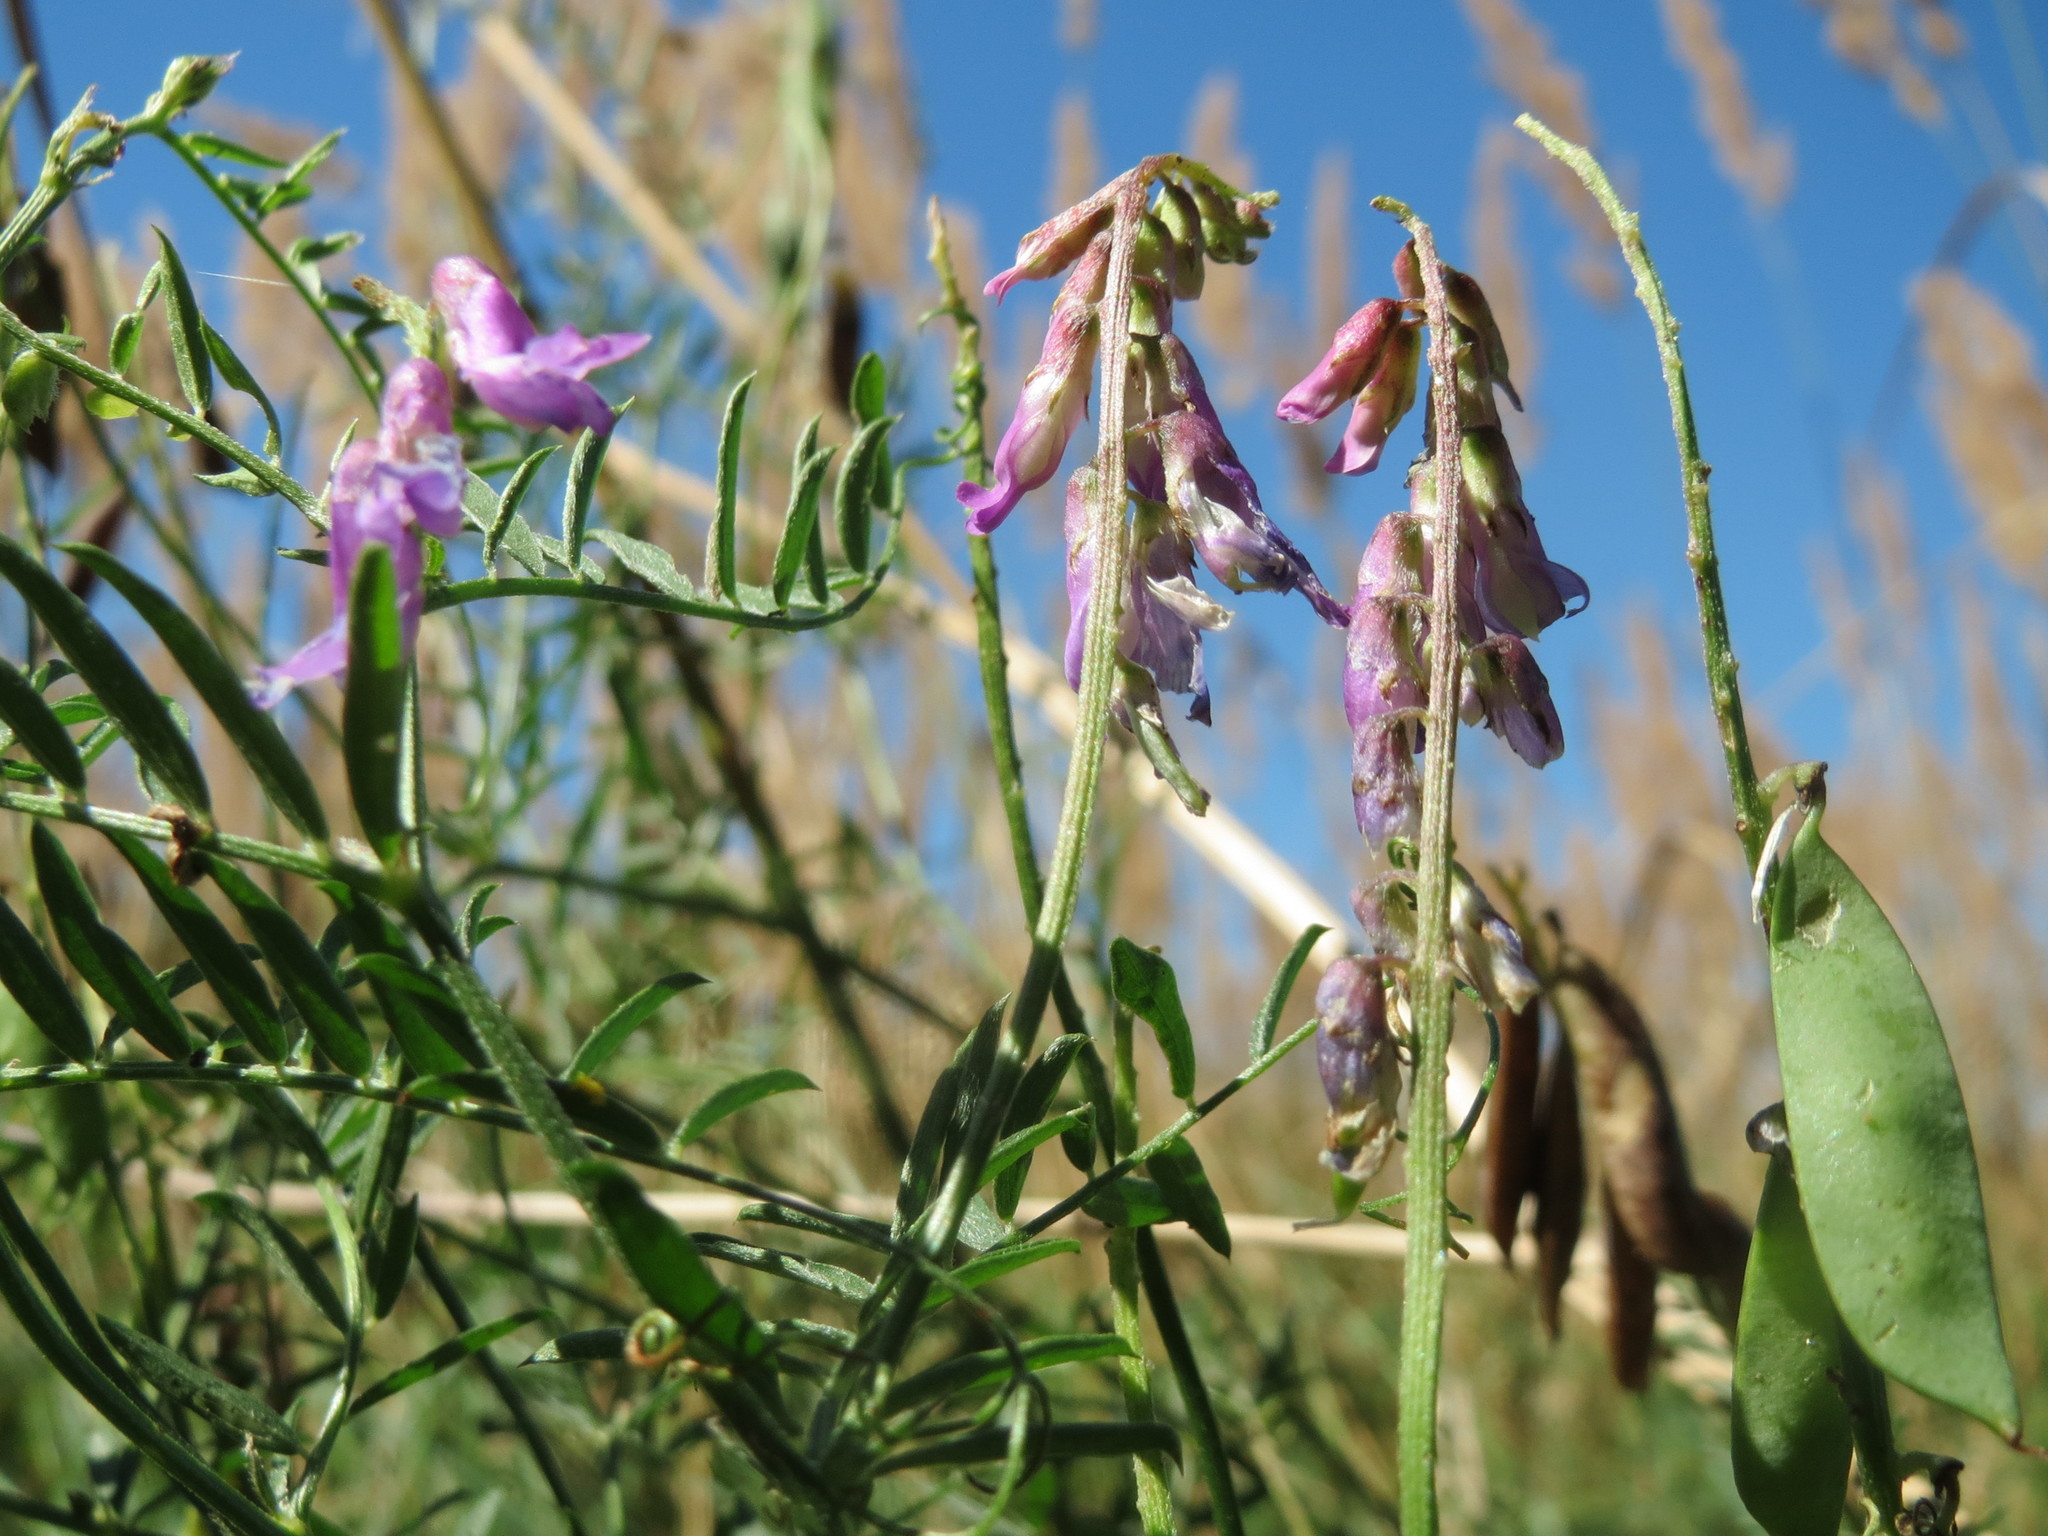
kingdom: Plantae
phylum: Tracheophyta
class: Magnoliopsida
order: Fabales
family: Fabaceae
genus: Vicia
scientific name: Vicia cracca
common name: Bird vetch
